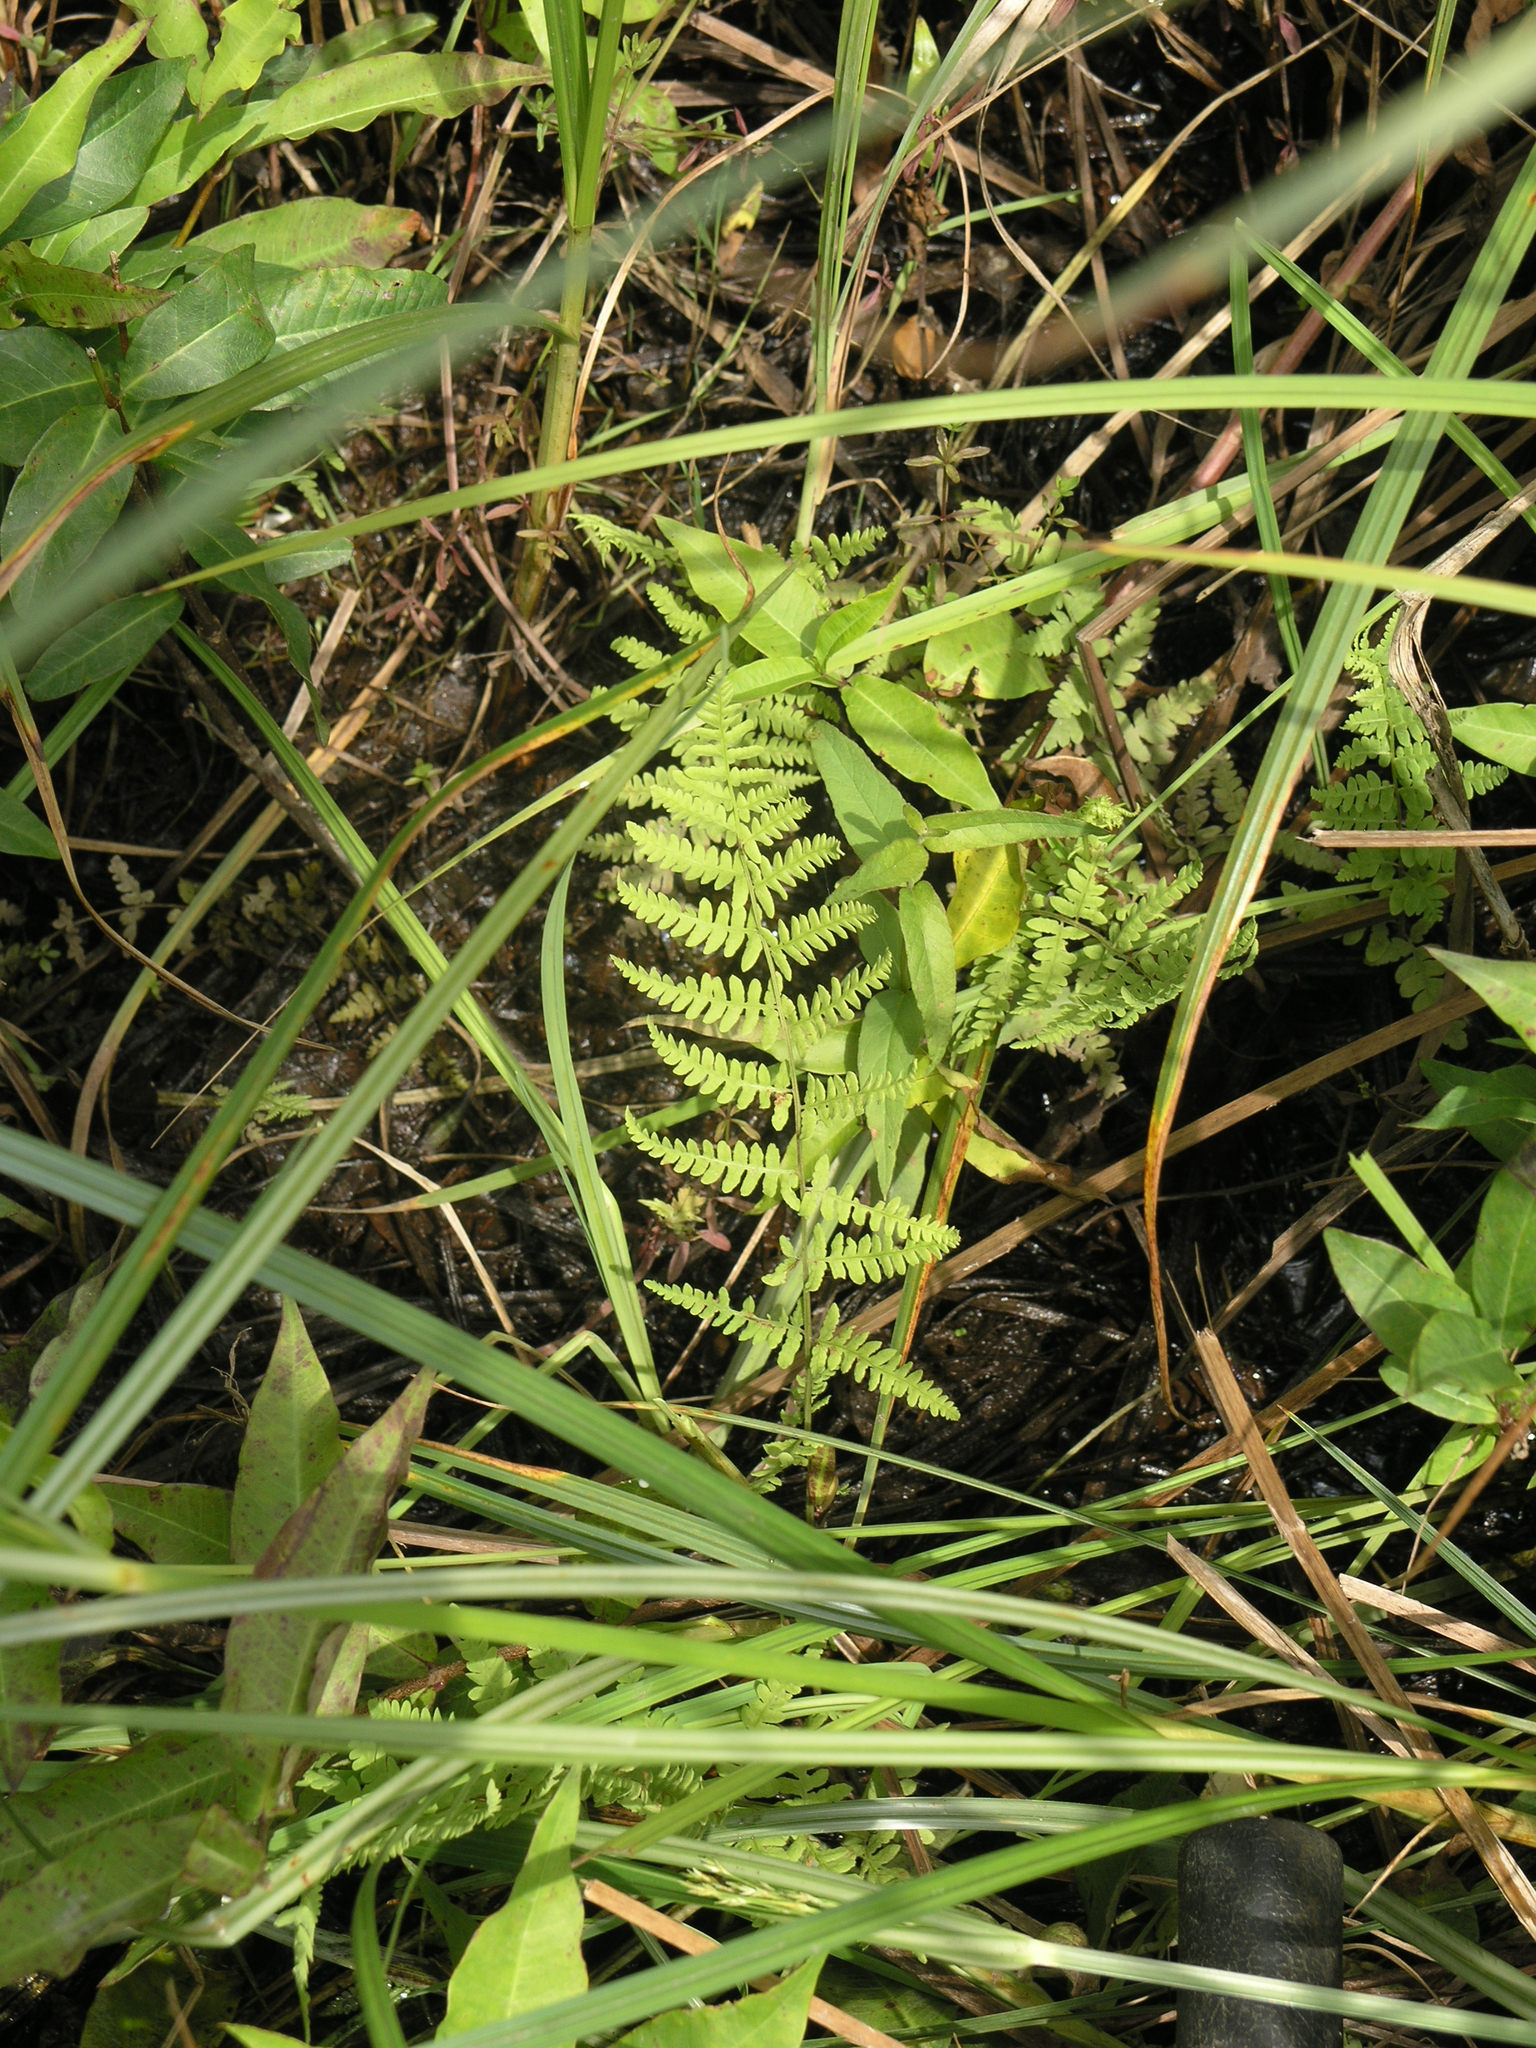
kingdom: Plantae
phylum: Tracheophyta
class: Polypodiopsida
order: Polypodiales
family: Thelypteridaceae
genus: Thelypteris
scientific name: Thelypteris palustris
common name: Marsh fern
